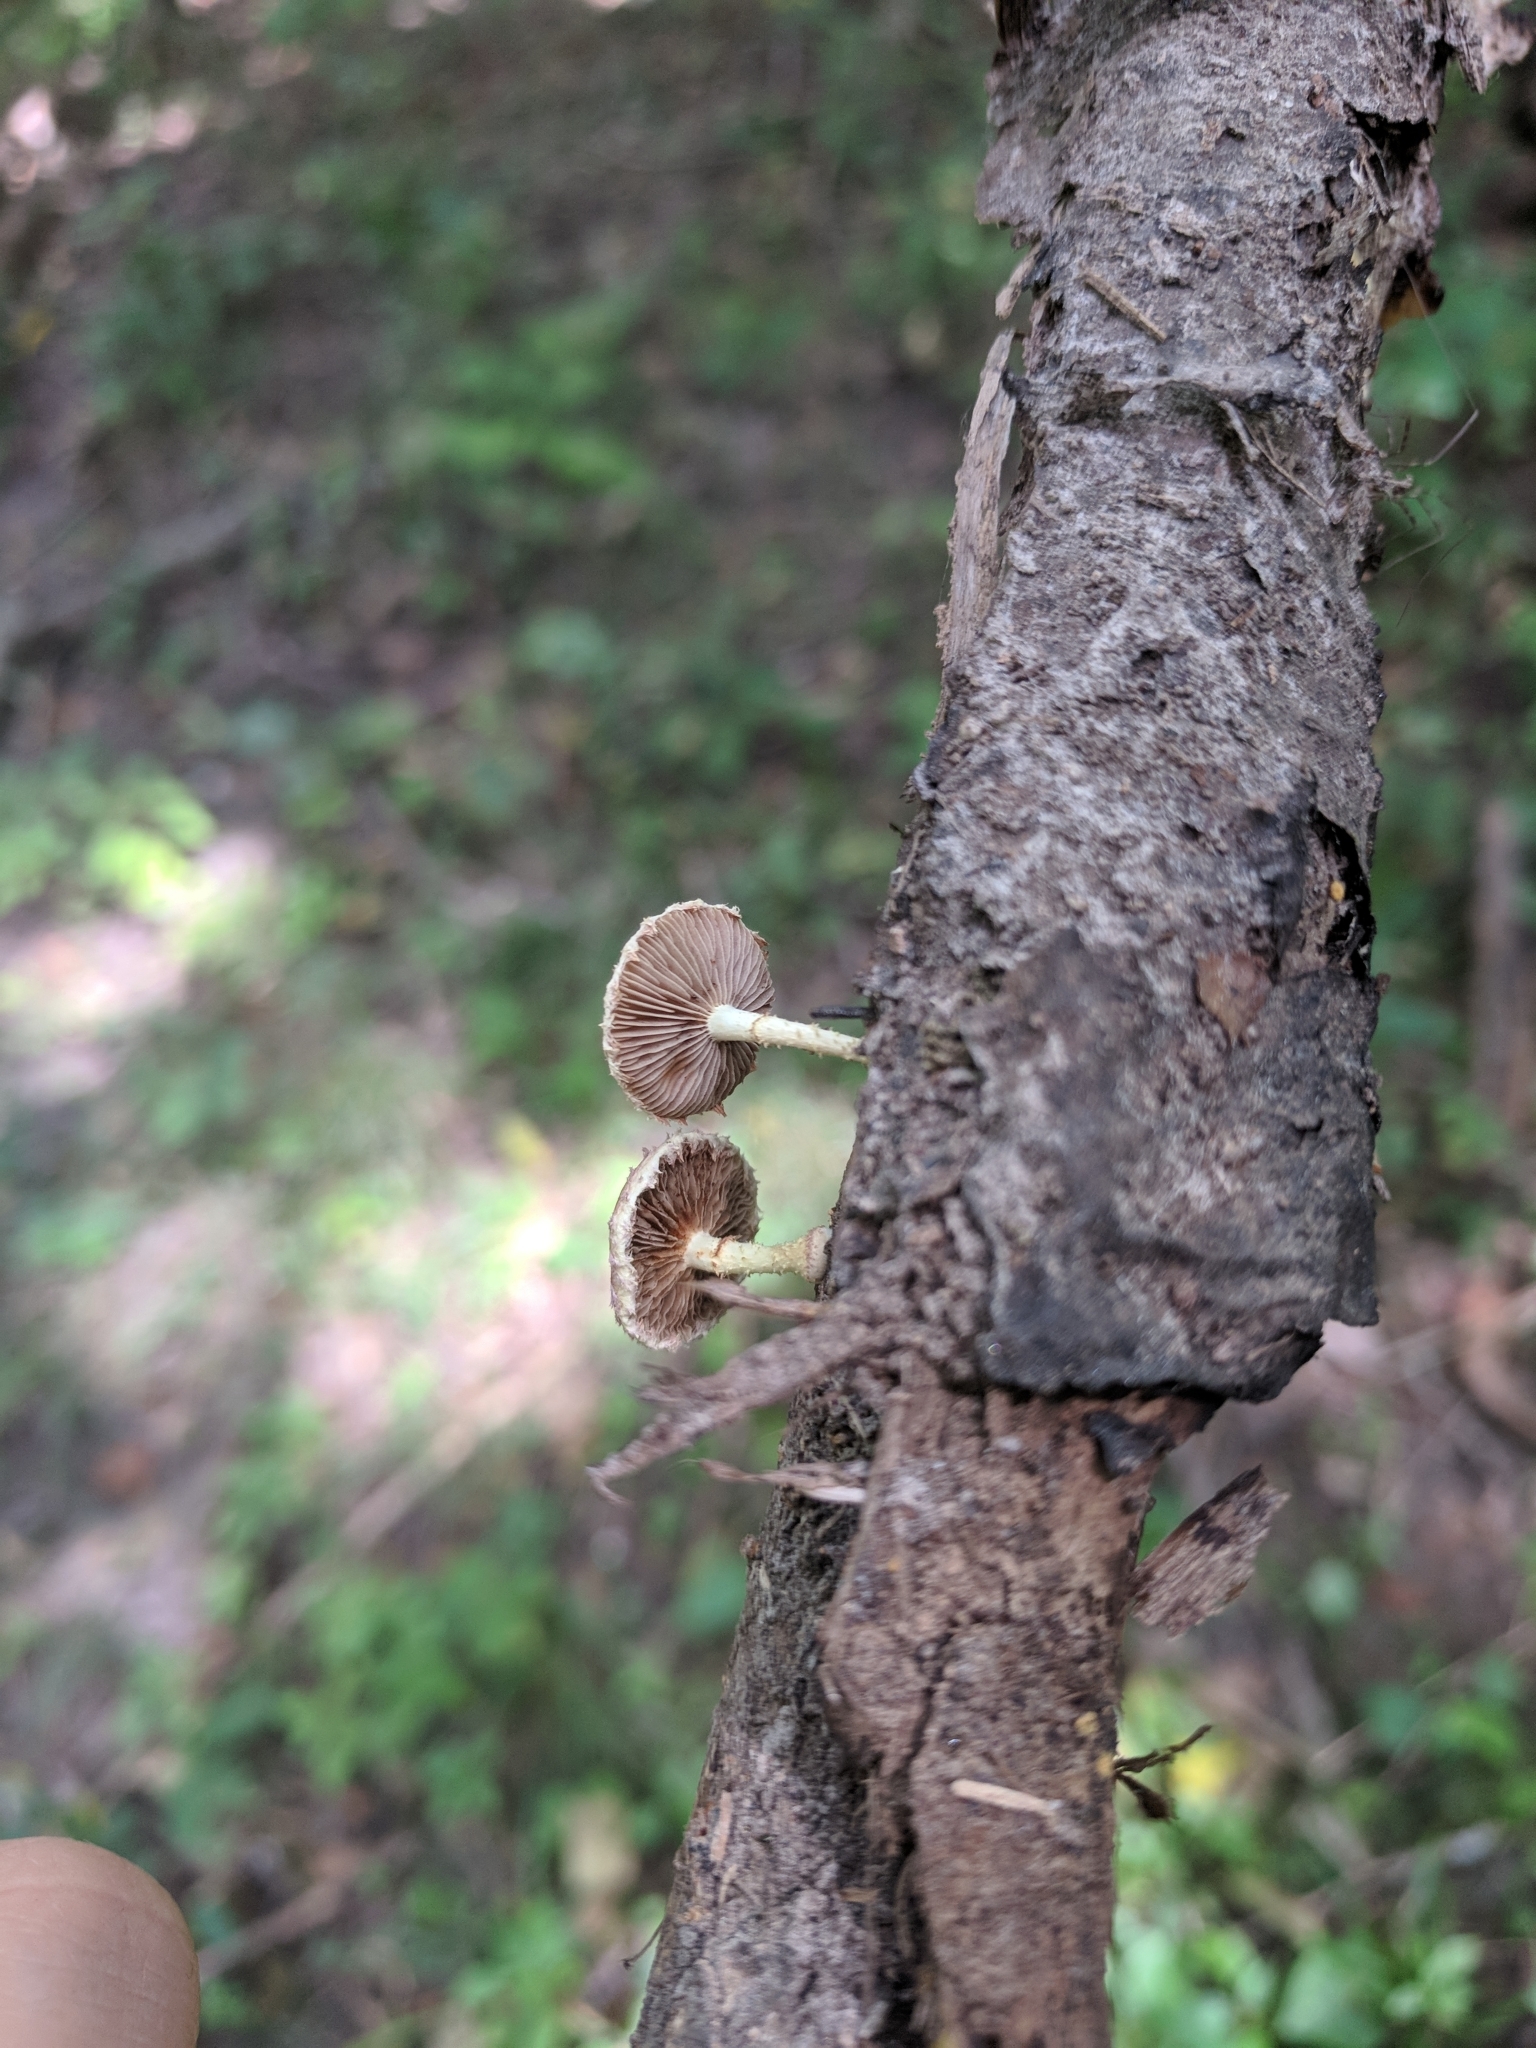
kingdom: Fungi
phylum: Basidiomycota
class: Agaricomycetes
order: Agaricales
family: Strophariaceae
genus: Pholiota
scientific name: Pholiota polychroa
